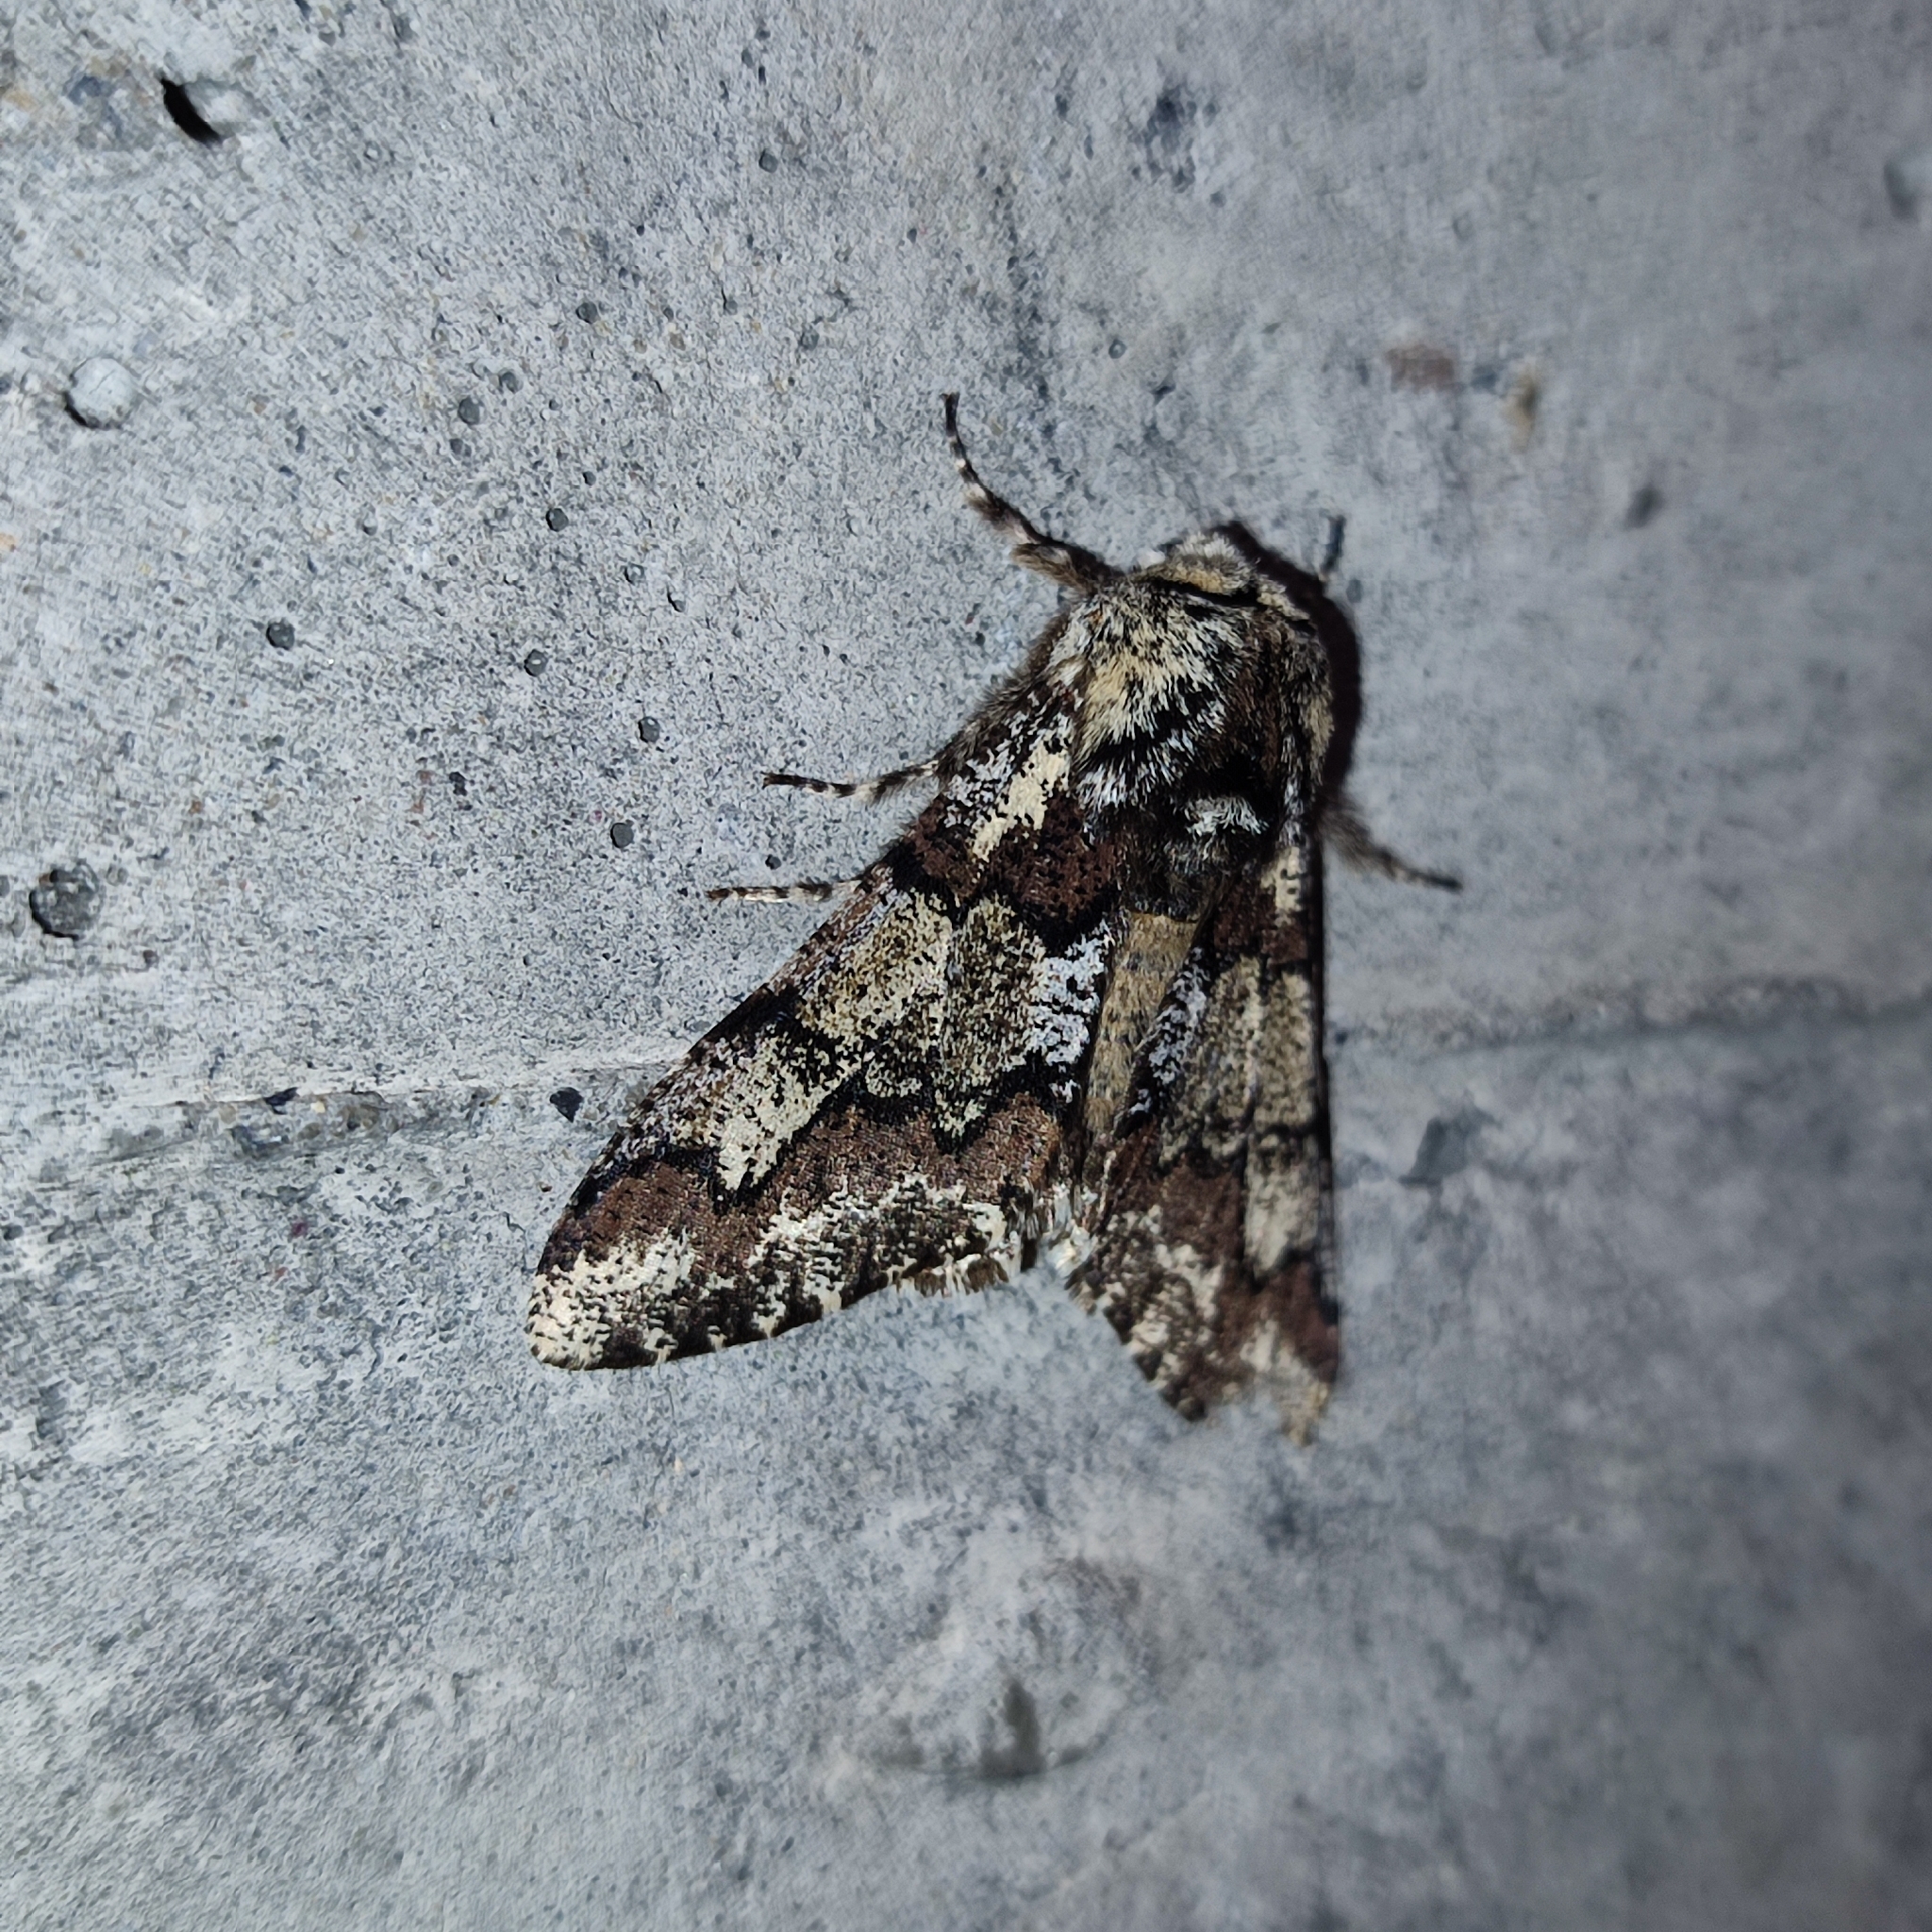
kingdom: Animalia
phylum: Arthropoda
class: Insecta
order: Lepidoptera
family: Geometridae
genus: Biston
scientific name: Biston strataria
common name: Oak beauty
